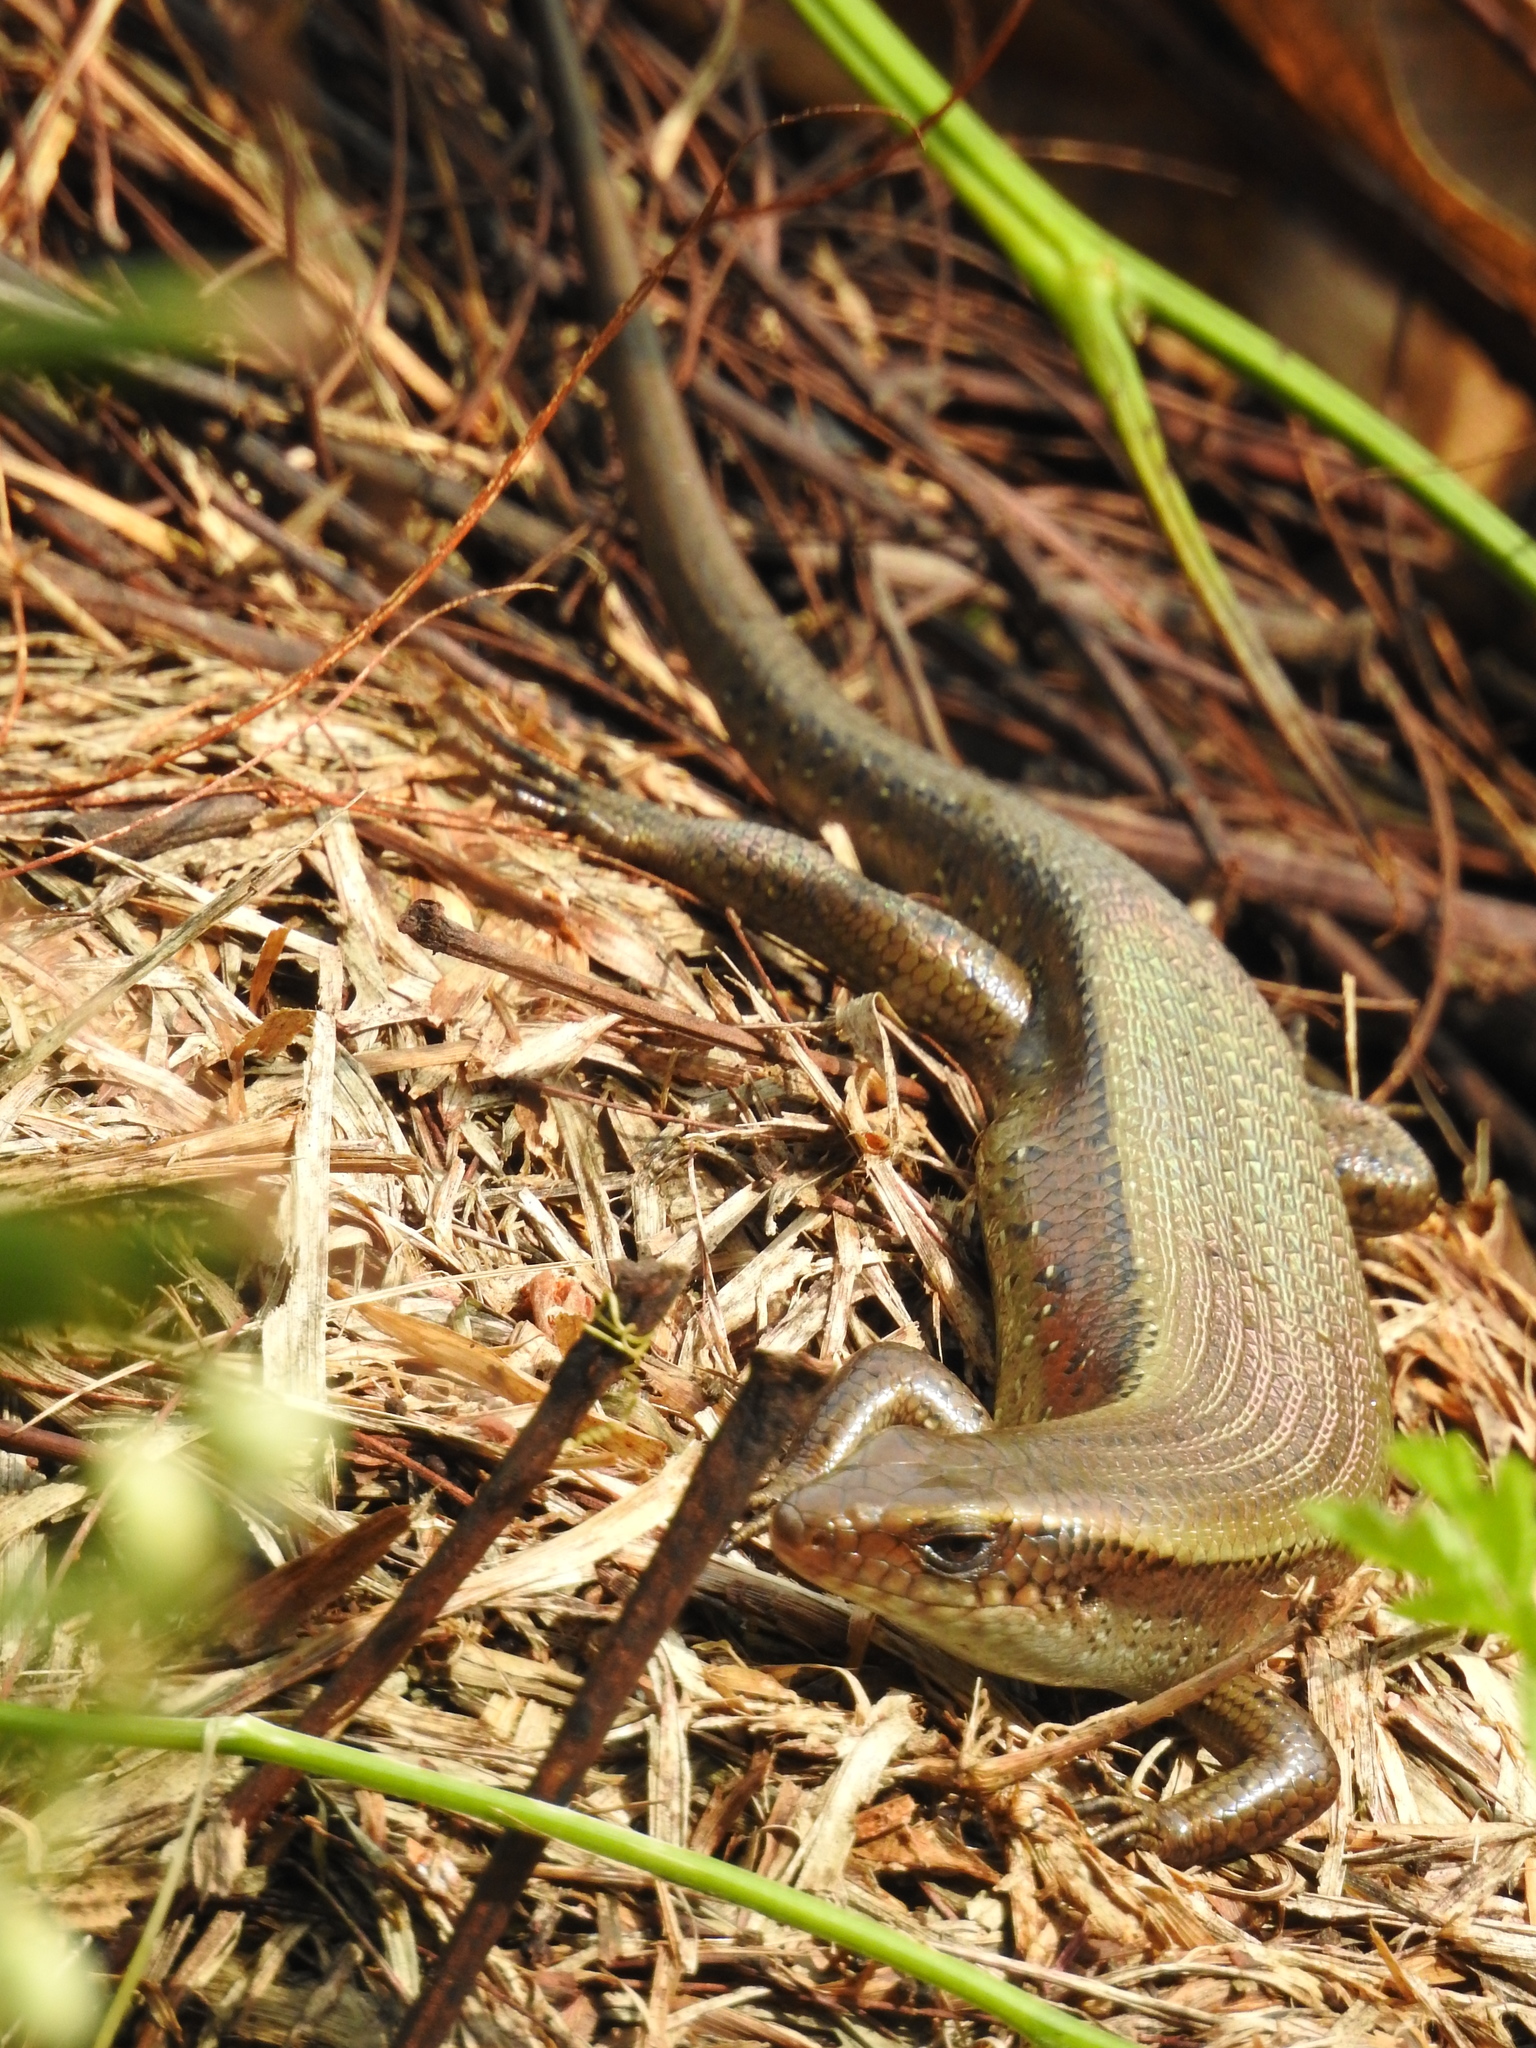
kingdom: Animalia
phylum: Chordata
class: Squamata
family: Scincidae
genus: Eutropis
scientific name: Eutropis multifasciata
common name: Common mabuya
